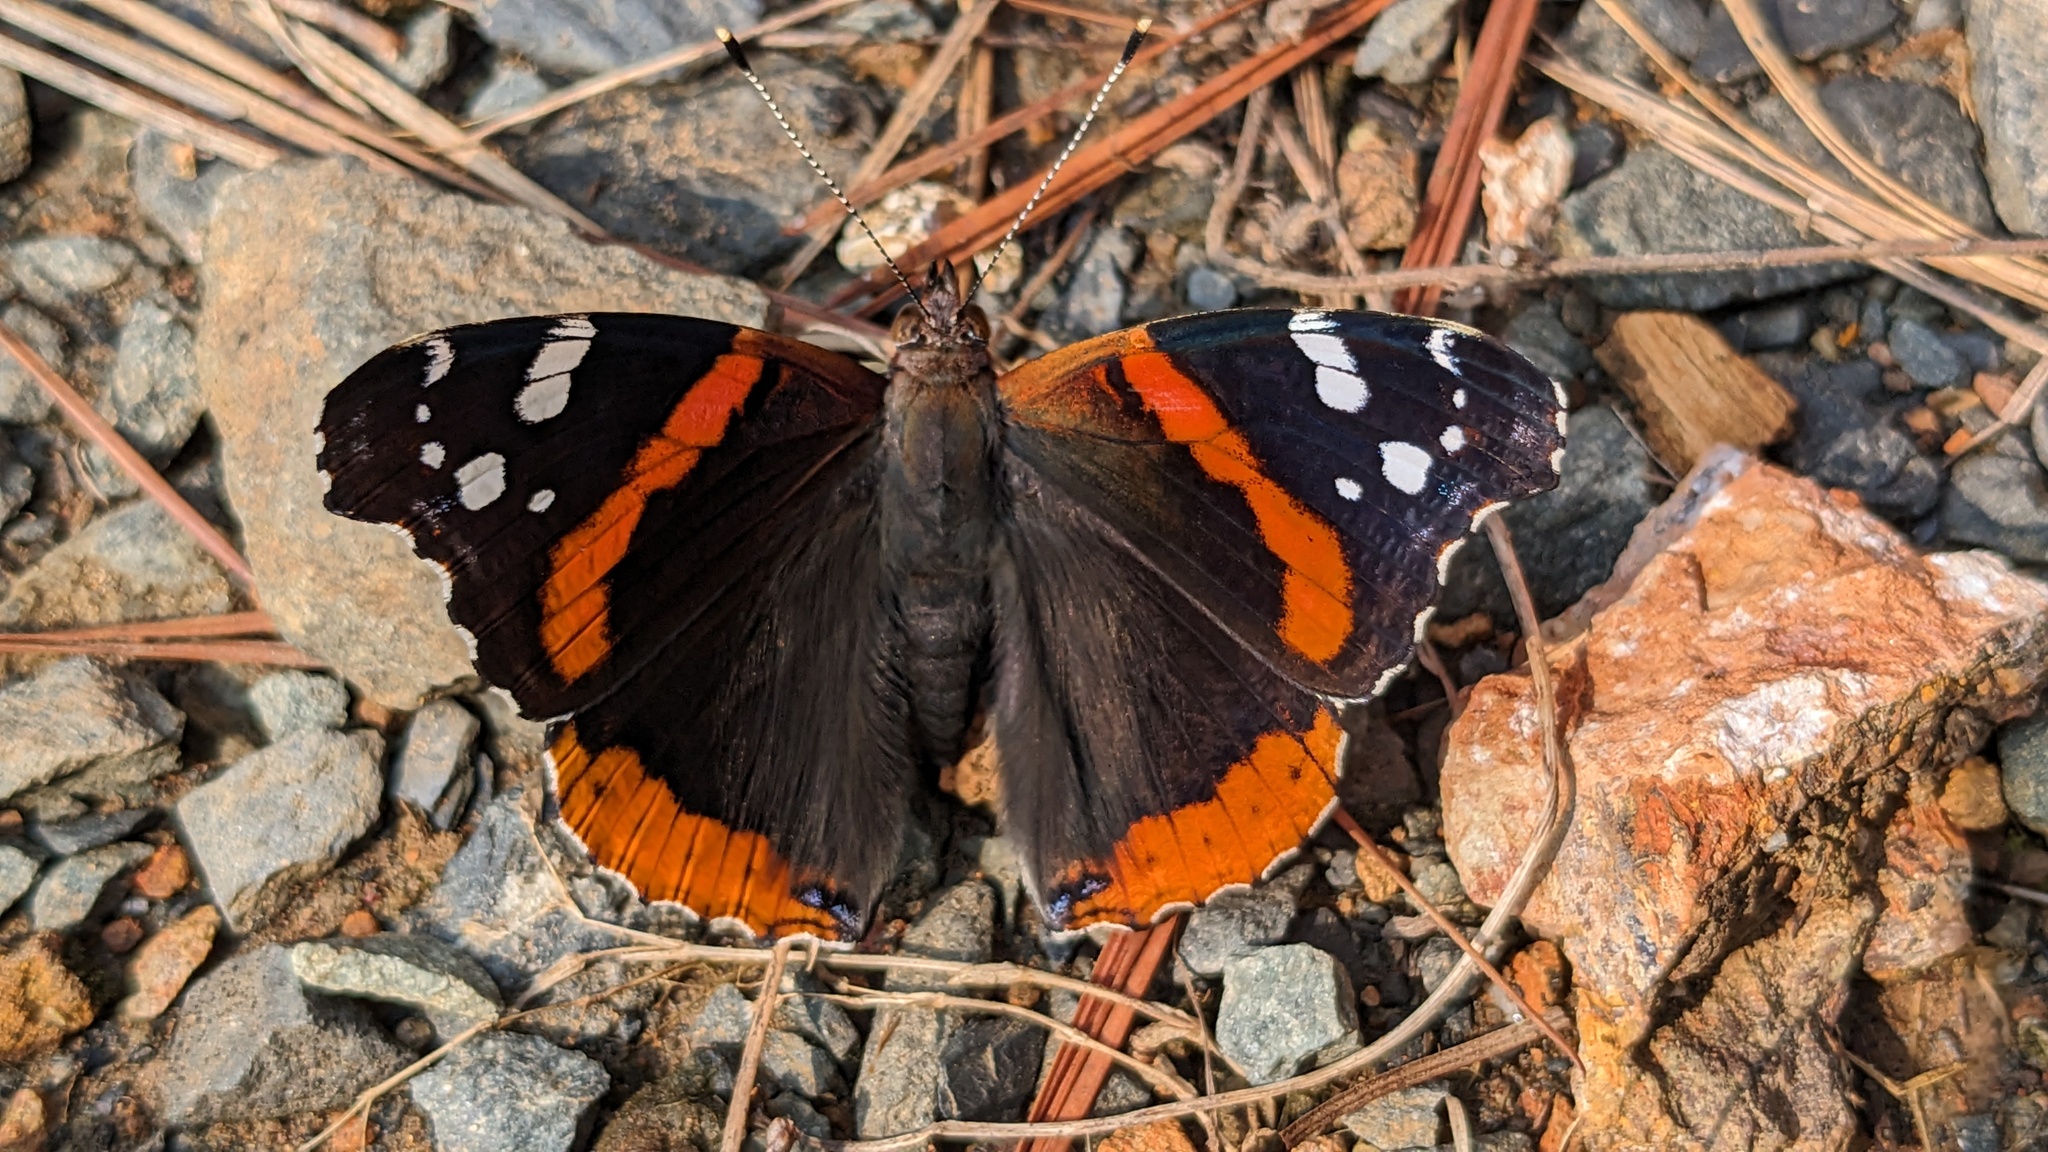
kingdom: Animalia
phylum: Arthropoda
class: Insecta
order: Lepidoptera
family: Nymphalidae
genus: Vanessa
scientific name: Vanessa atalanta
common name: Red admiral
